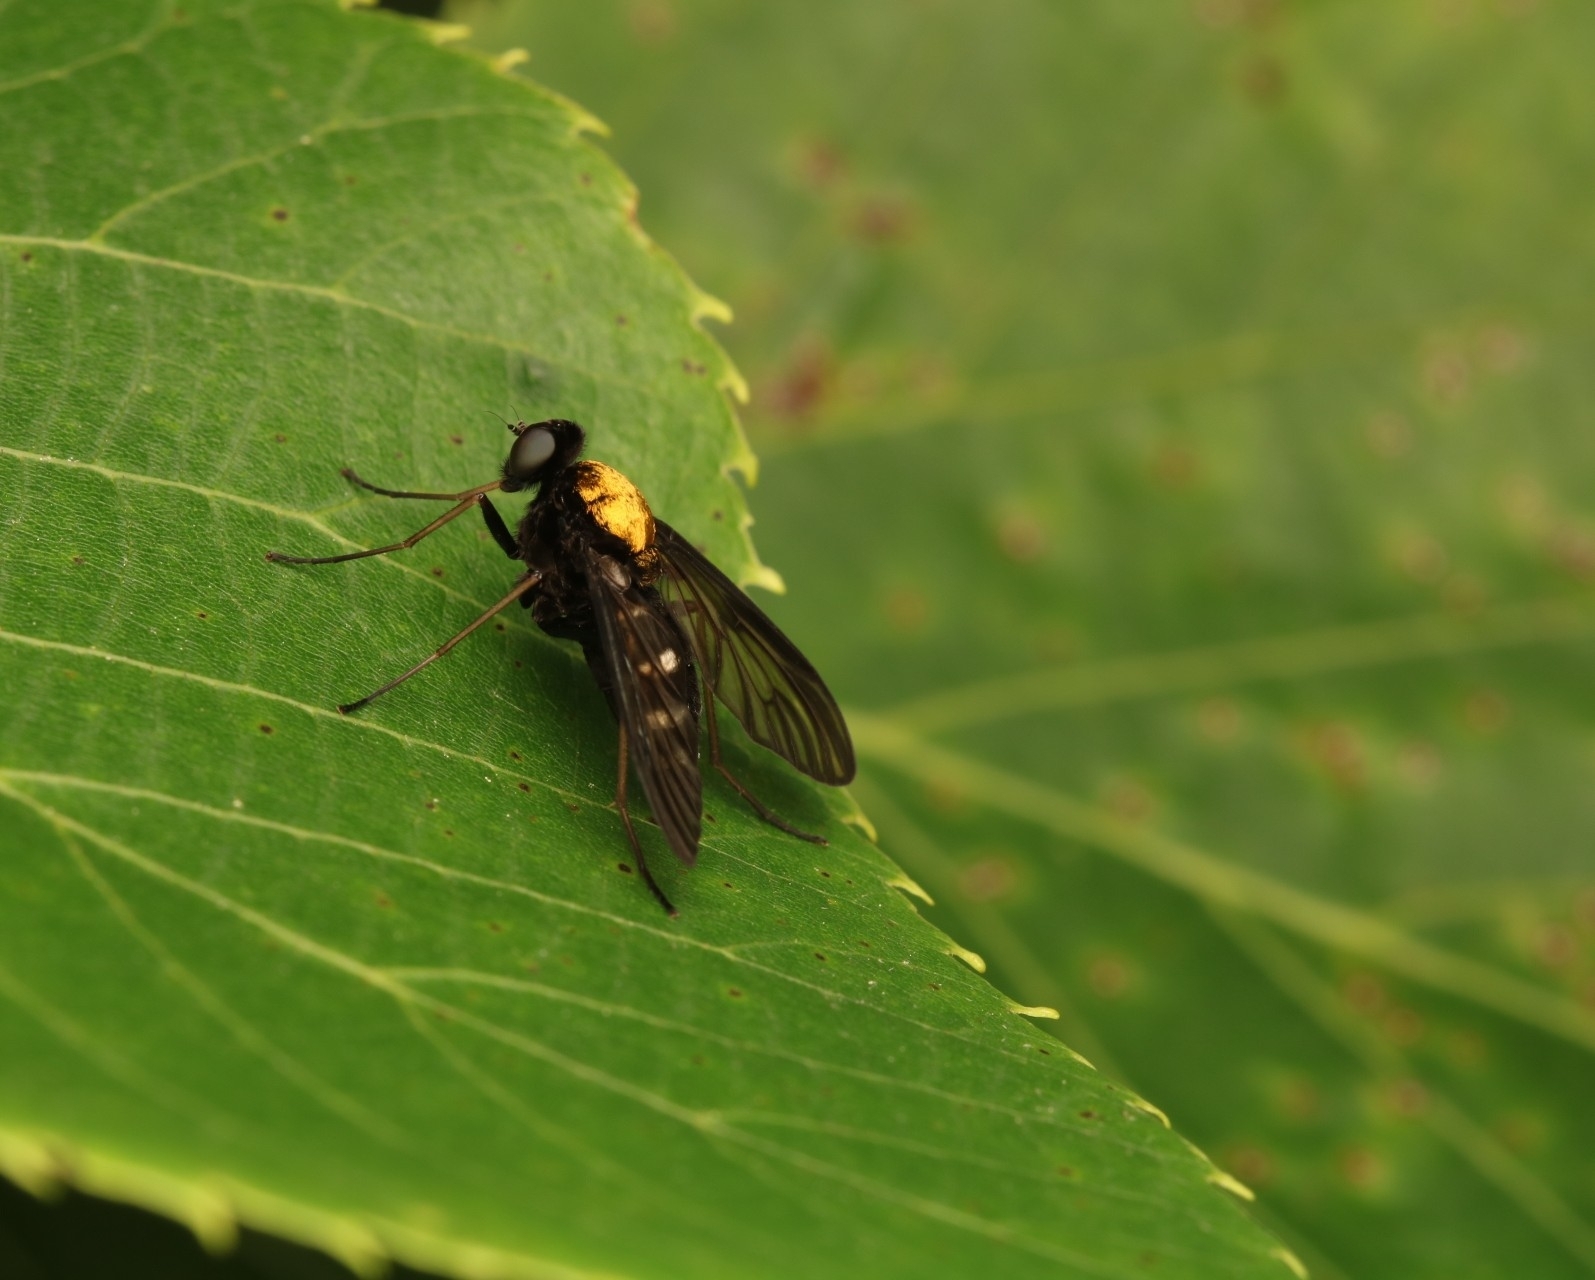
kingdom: Animalia
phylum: Arthropoda
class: Insecta
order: Diptera
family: Rhagionidae
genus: Chrysopilus
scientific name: Chrysopilus thoracicus
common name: Golden-backed snipe fly
